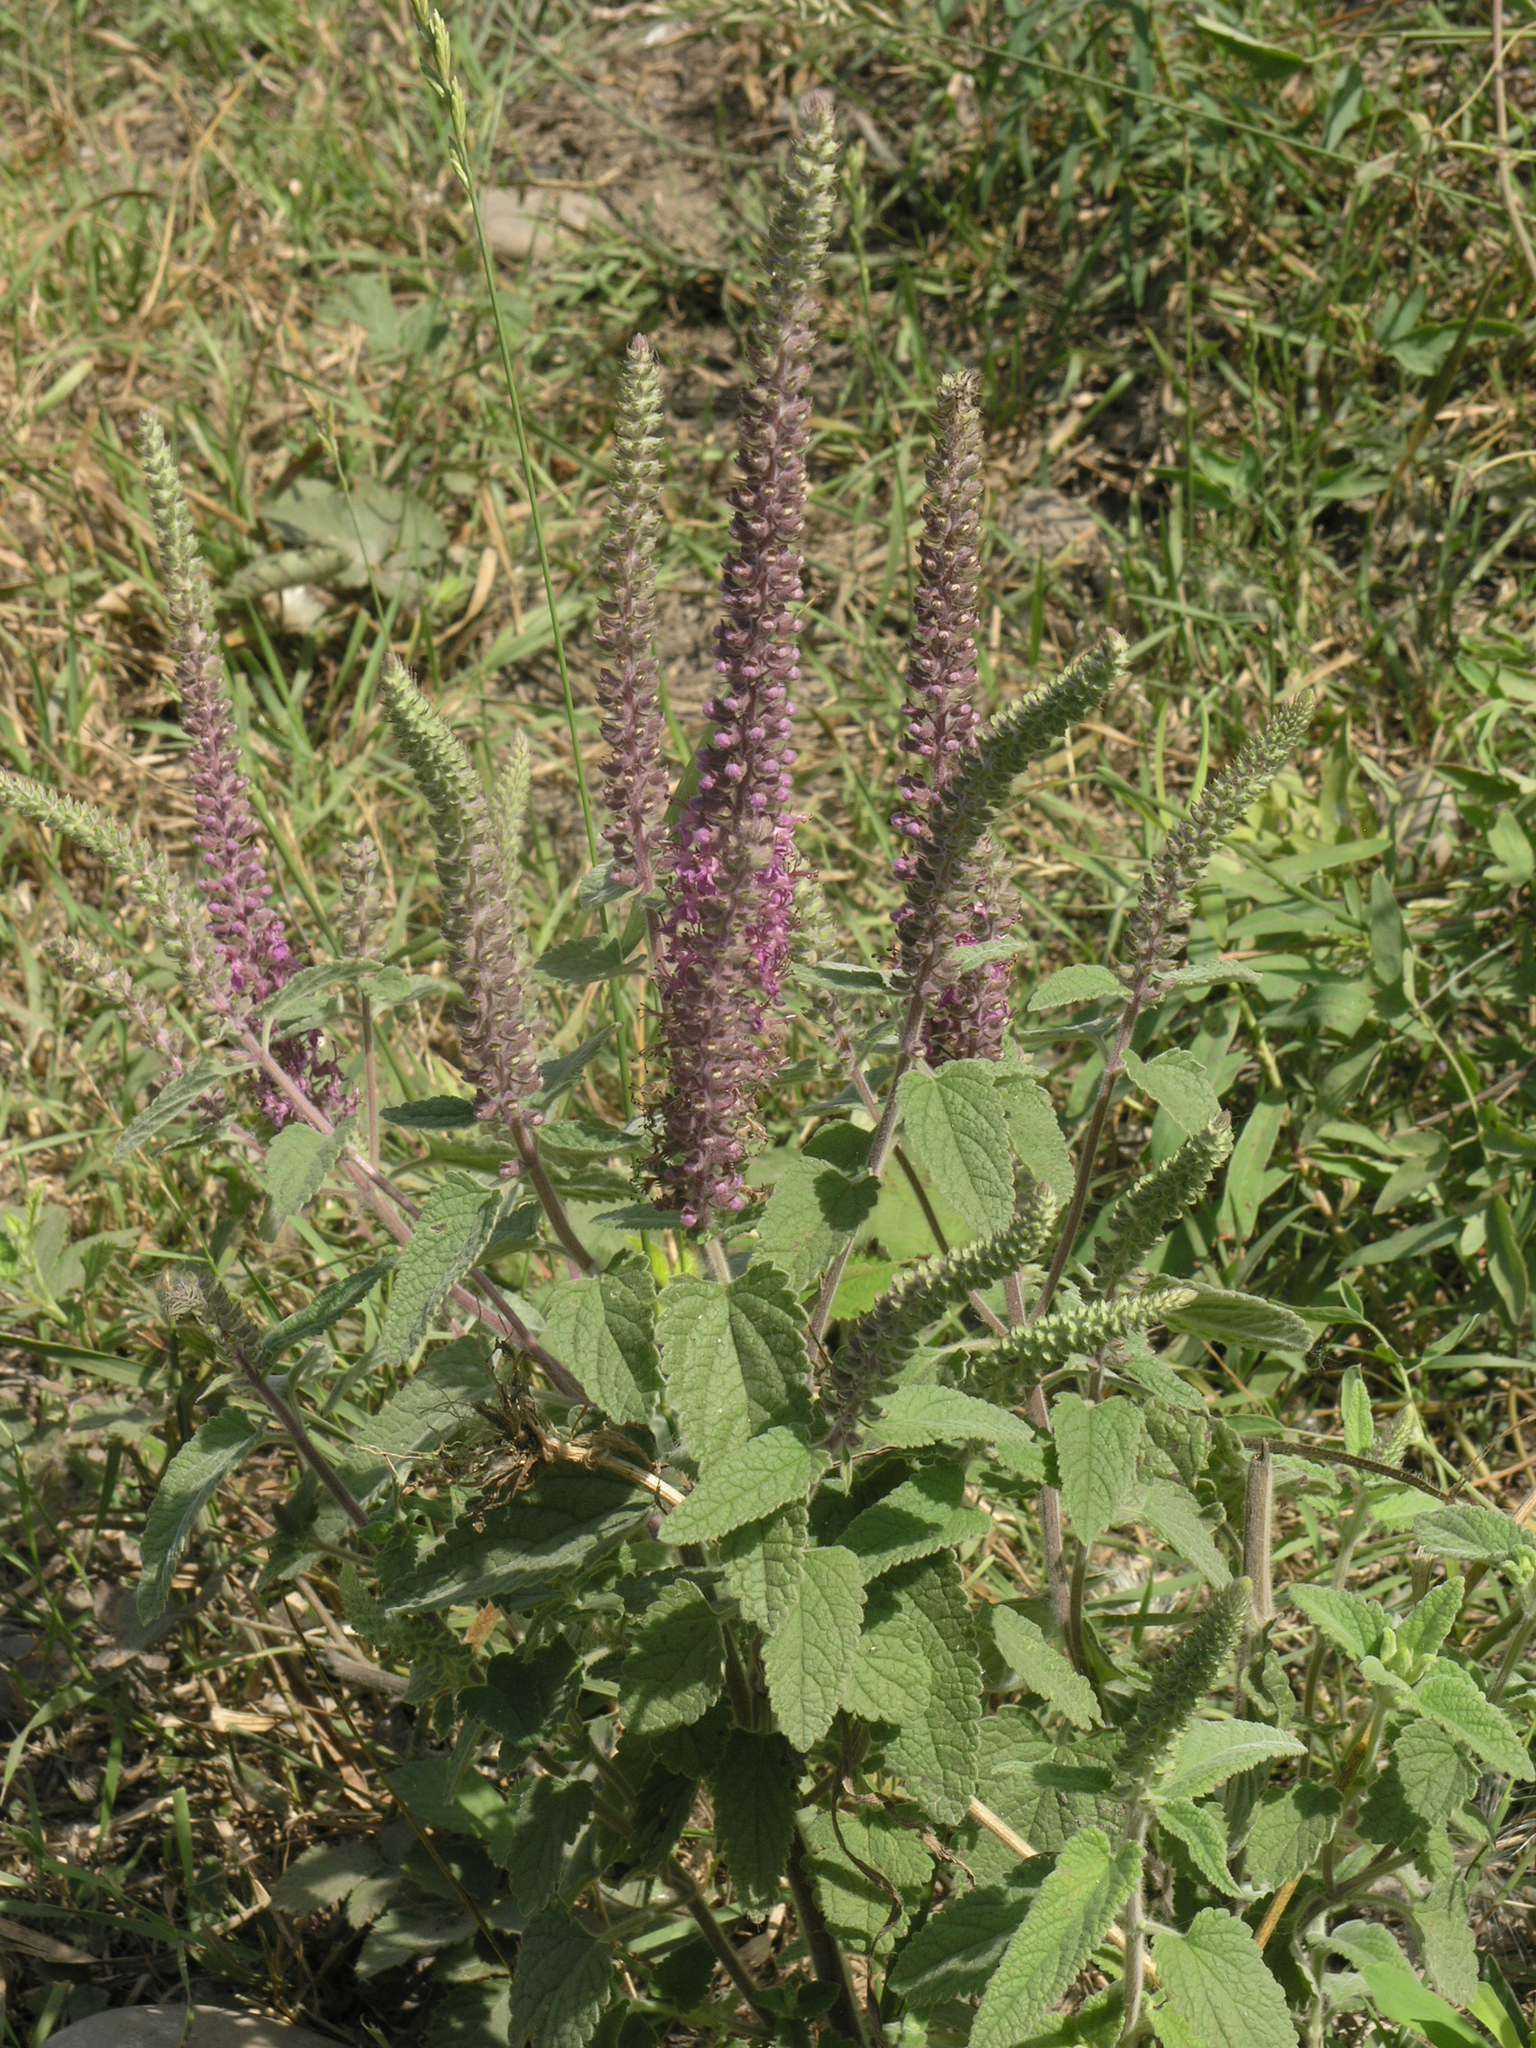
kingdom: Plantae
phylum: Tracheophyta
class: Magnoliopsida
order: Lamiales
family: Lamiaceae
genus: Teucrium
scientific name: Teucrium hircanicum
